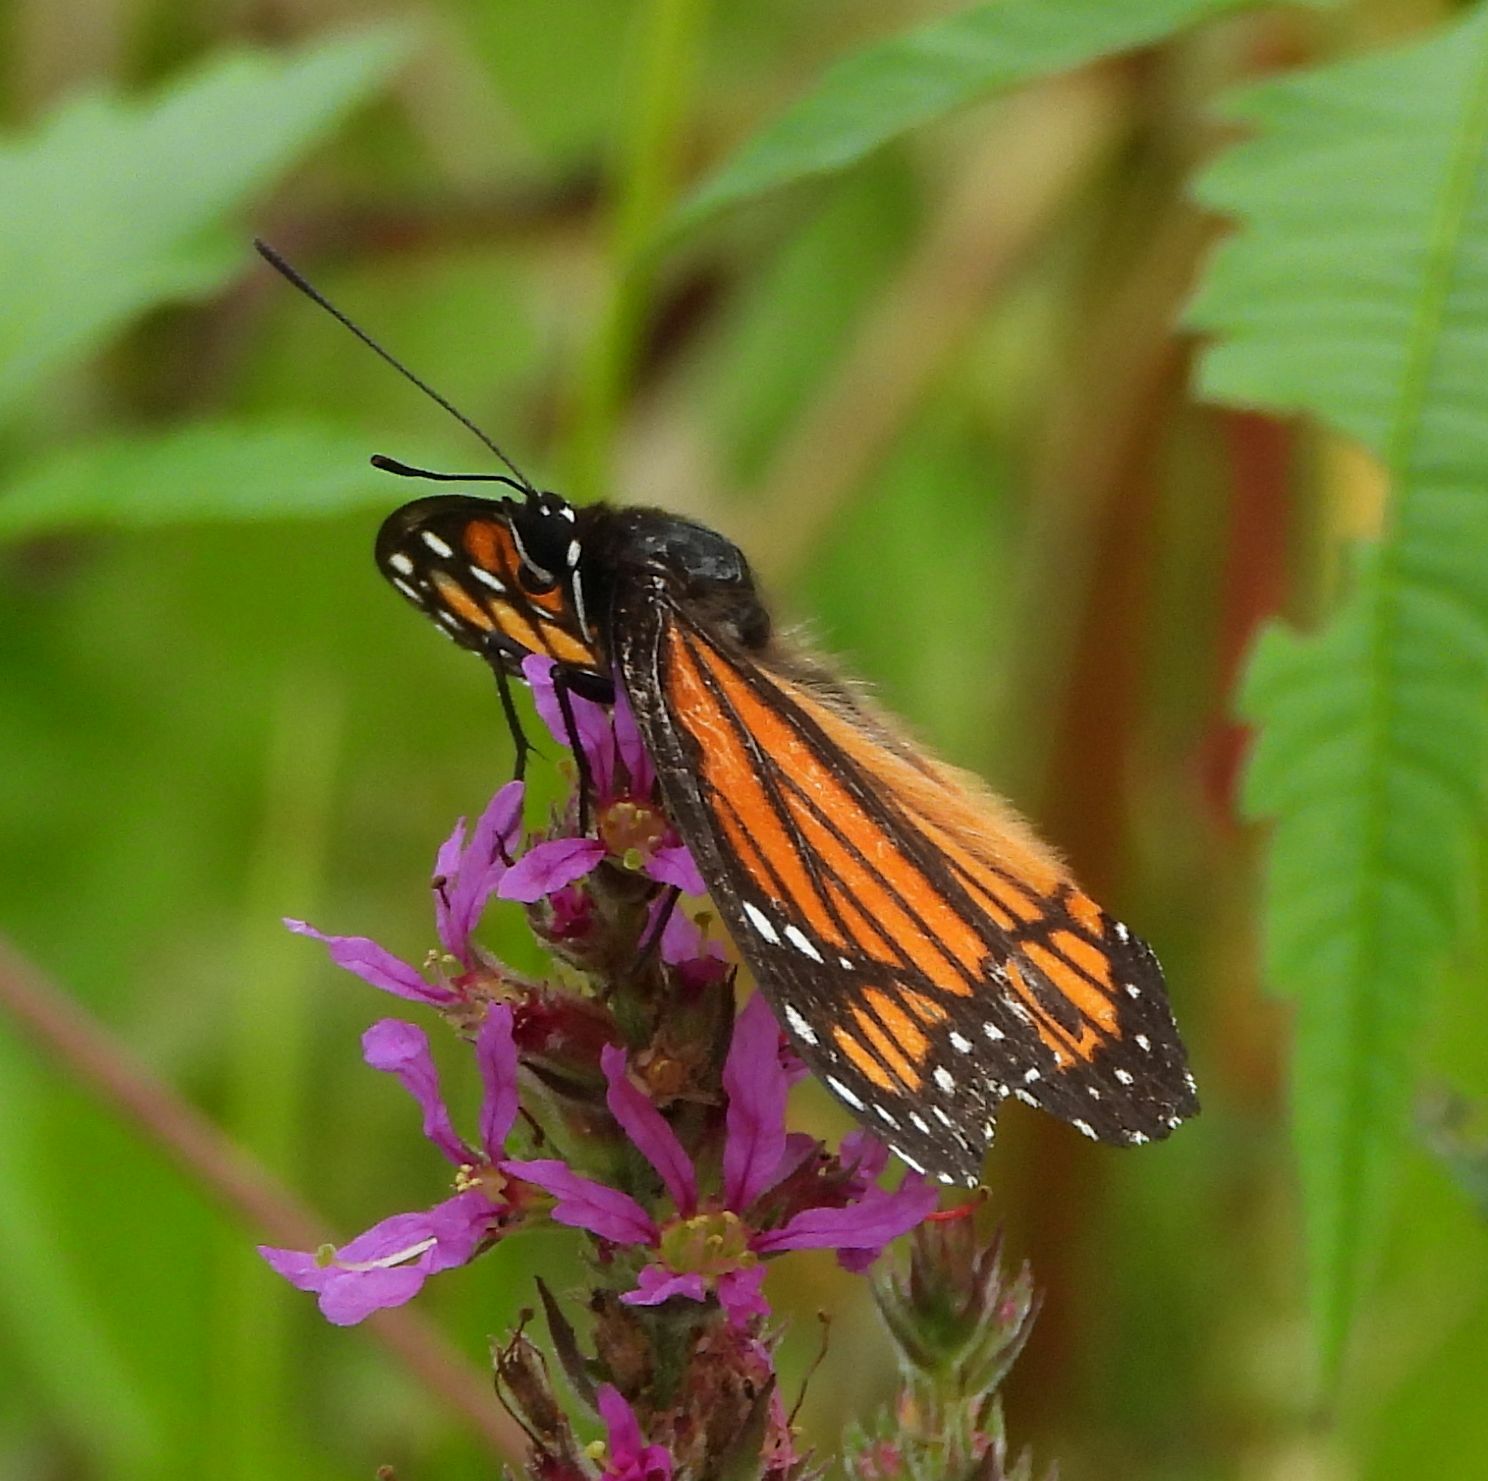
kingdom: Animalia
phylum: Arthropoda
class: Insecta
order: Lepidoptera
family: Nymphalidae
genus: Limenitis
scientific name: Limenitis archippus
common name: Viceroy
